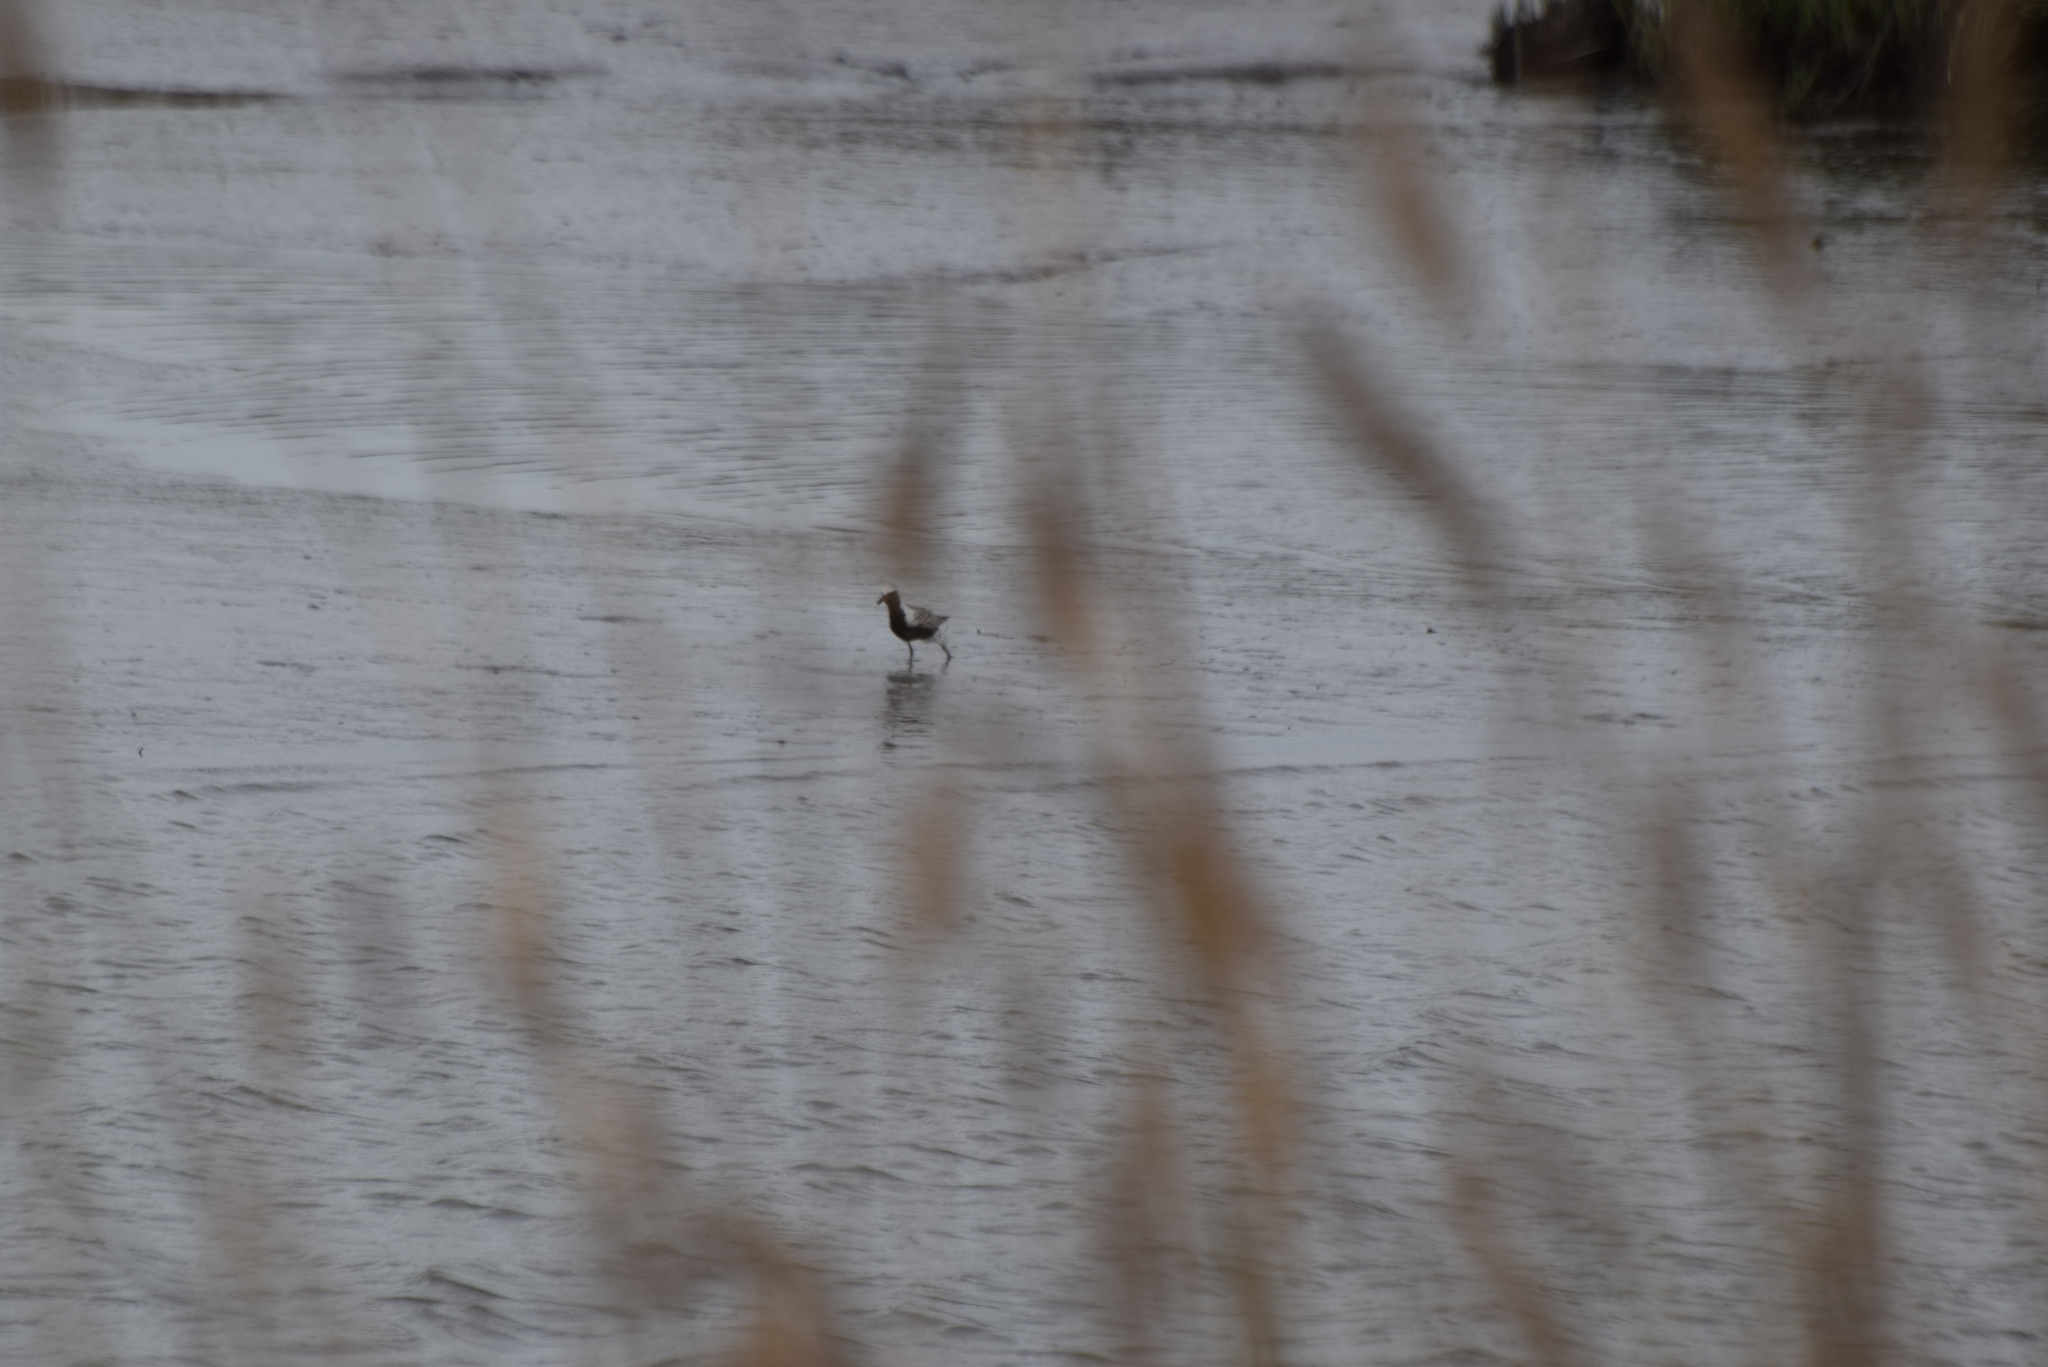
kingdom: Animalia
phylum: Chordata
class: Aves
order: Charadriiformes
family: Charadriidae
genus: Pluvialis
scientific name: Pluvialis squatarola
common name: Grey plover
